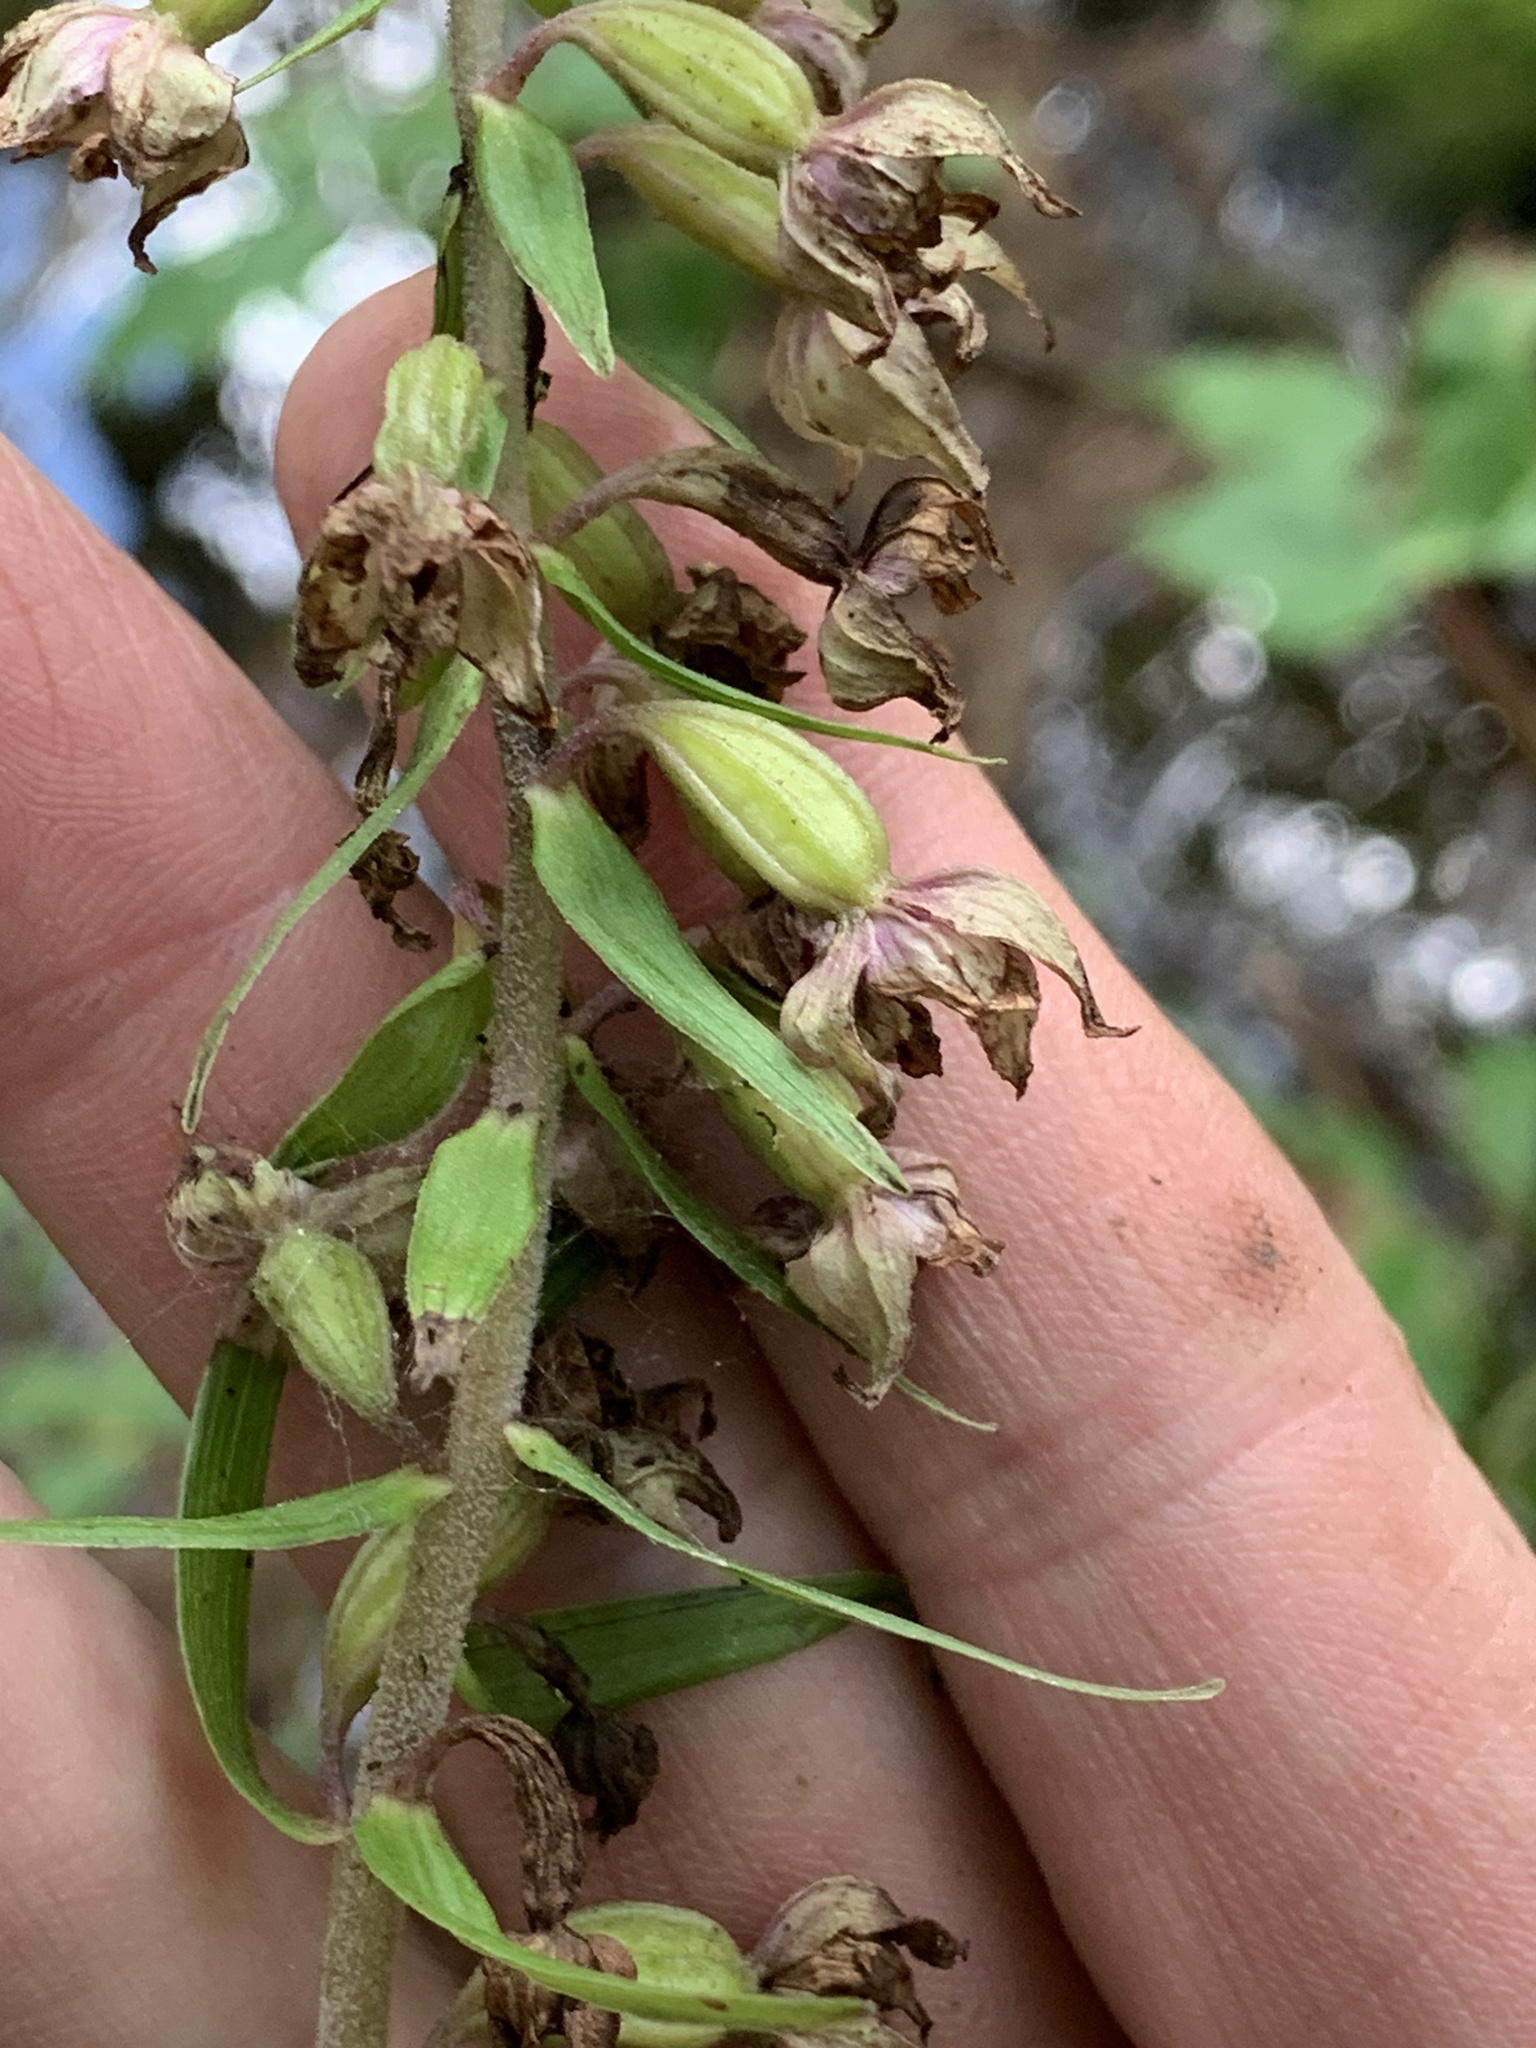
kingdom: Plantae
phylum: Tracheophyta
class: Liliopsida
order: Asparagales
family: Orchidaceae
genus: Epipactis
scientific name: Epipactis helleborine
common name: Broad-leaved helleborine
